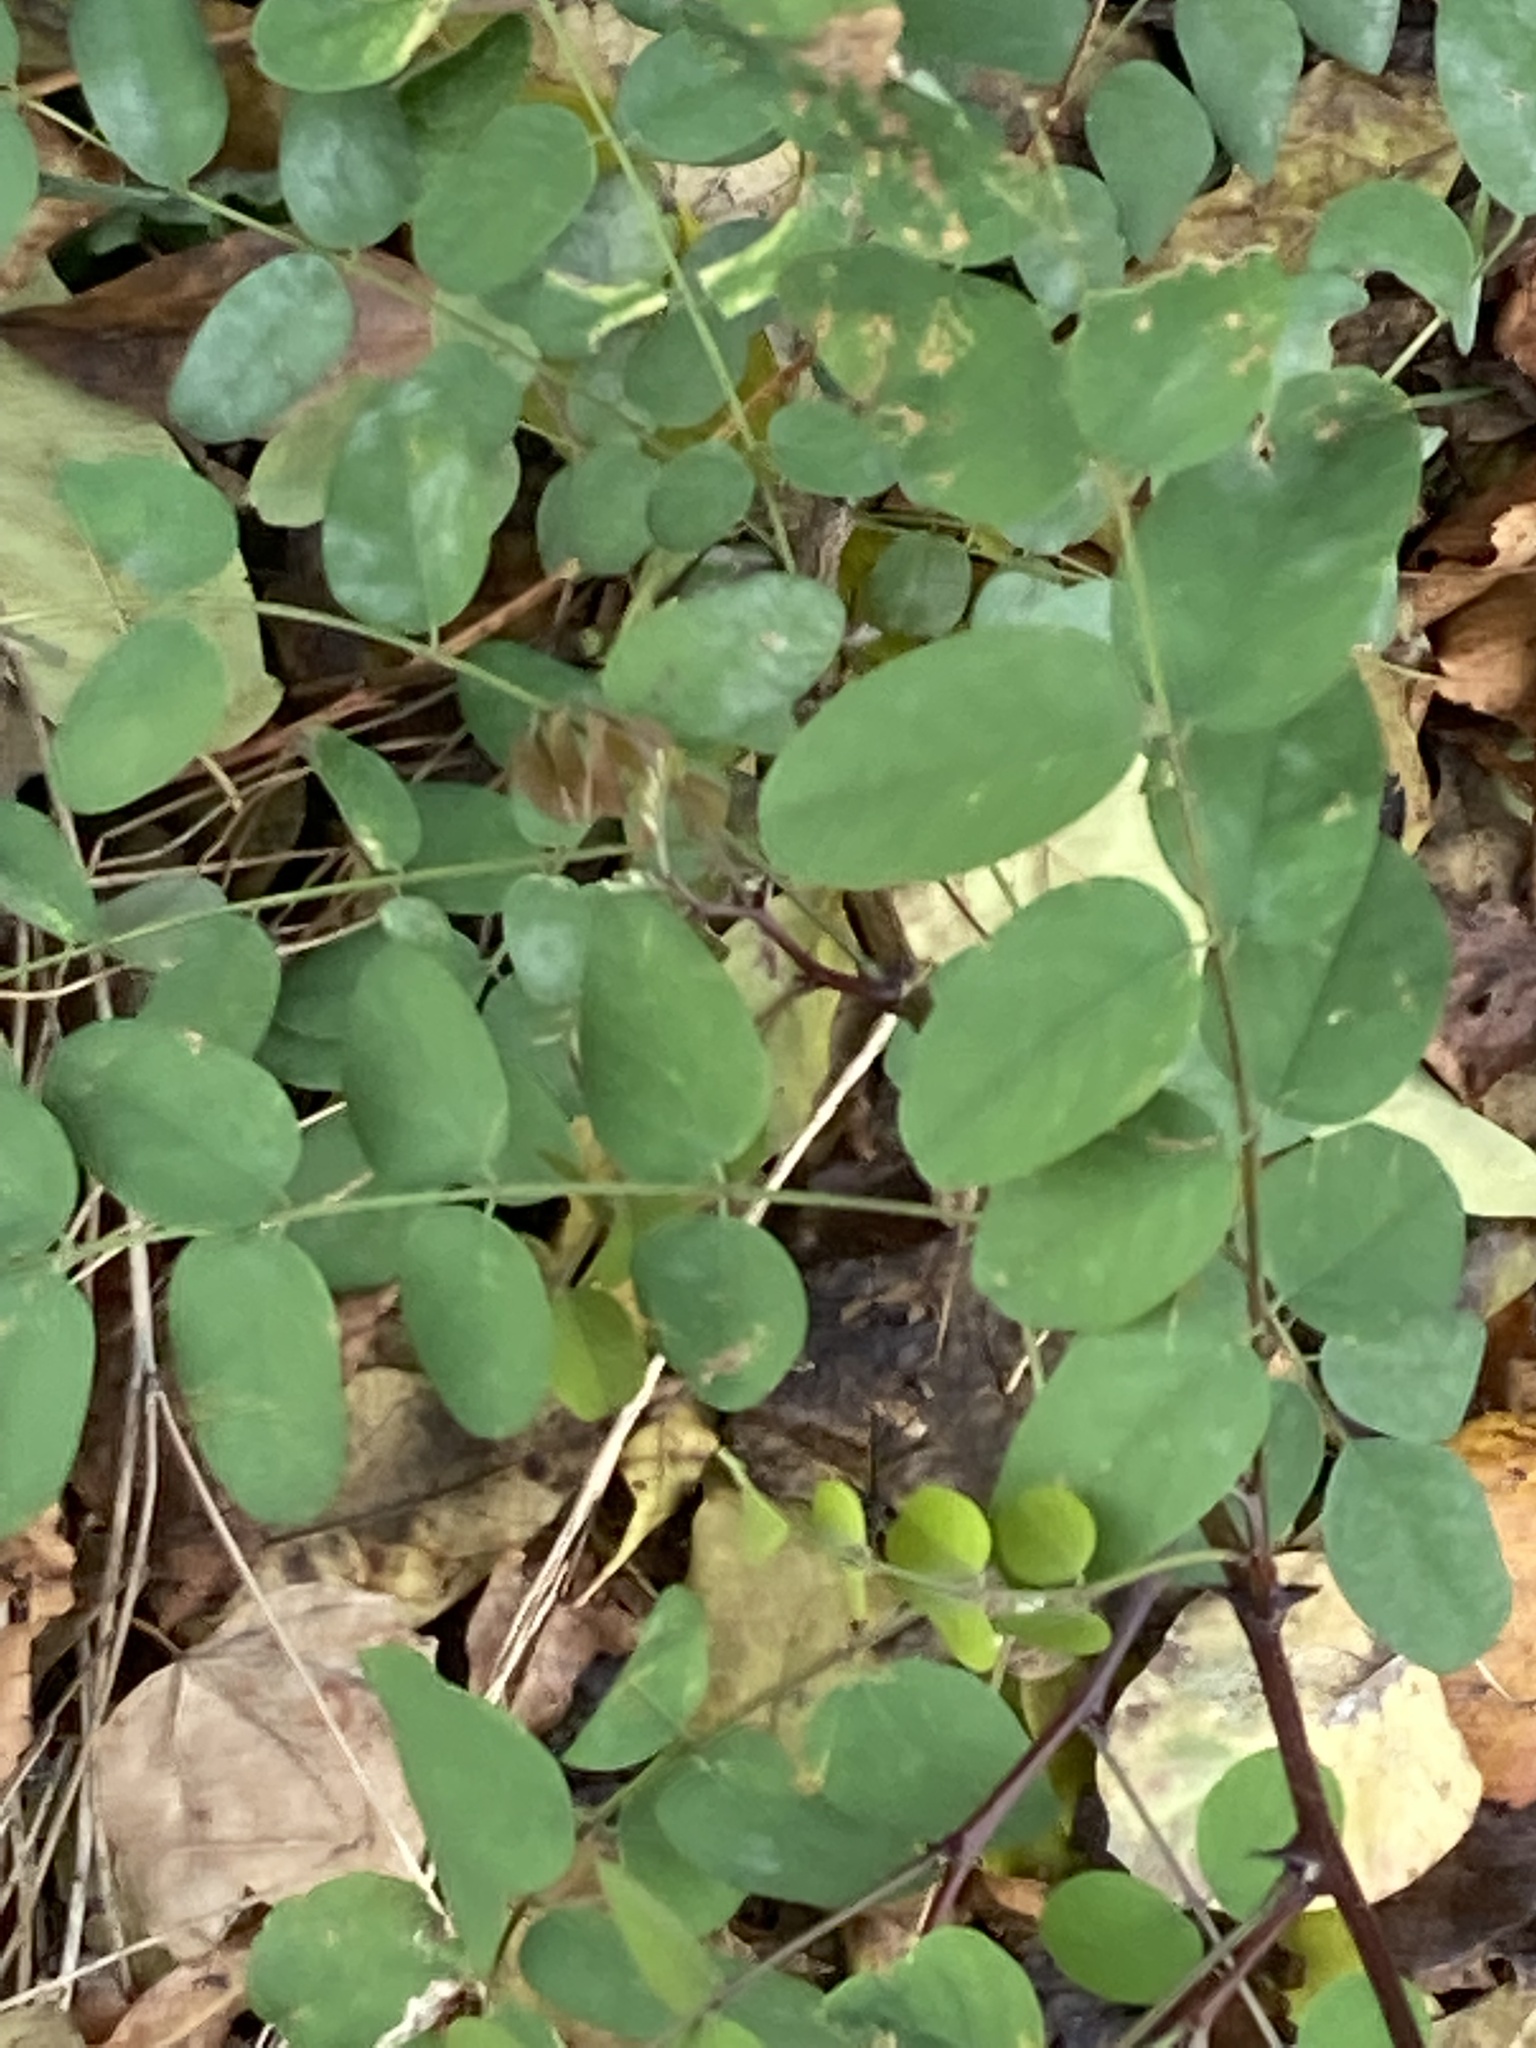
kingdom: Plantae
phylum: Tracheophyta
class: Magnoliopsida
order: Fabales
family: Fabaceae
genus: Robinia
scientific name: Robinia pseudoacacia
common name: Black locust
